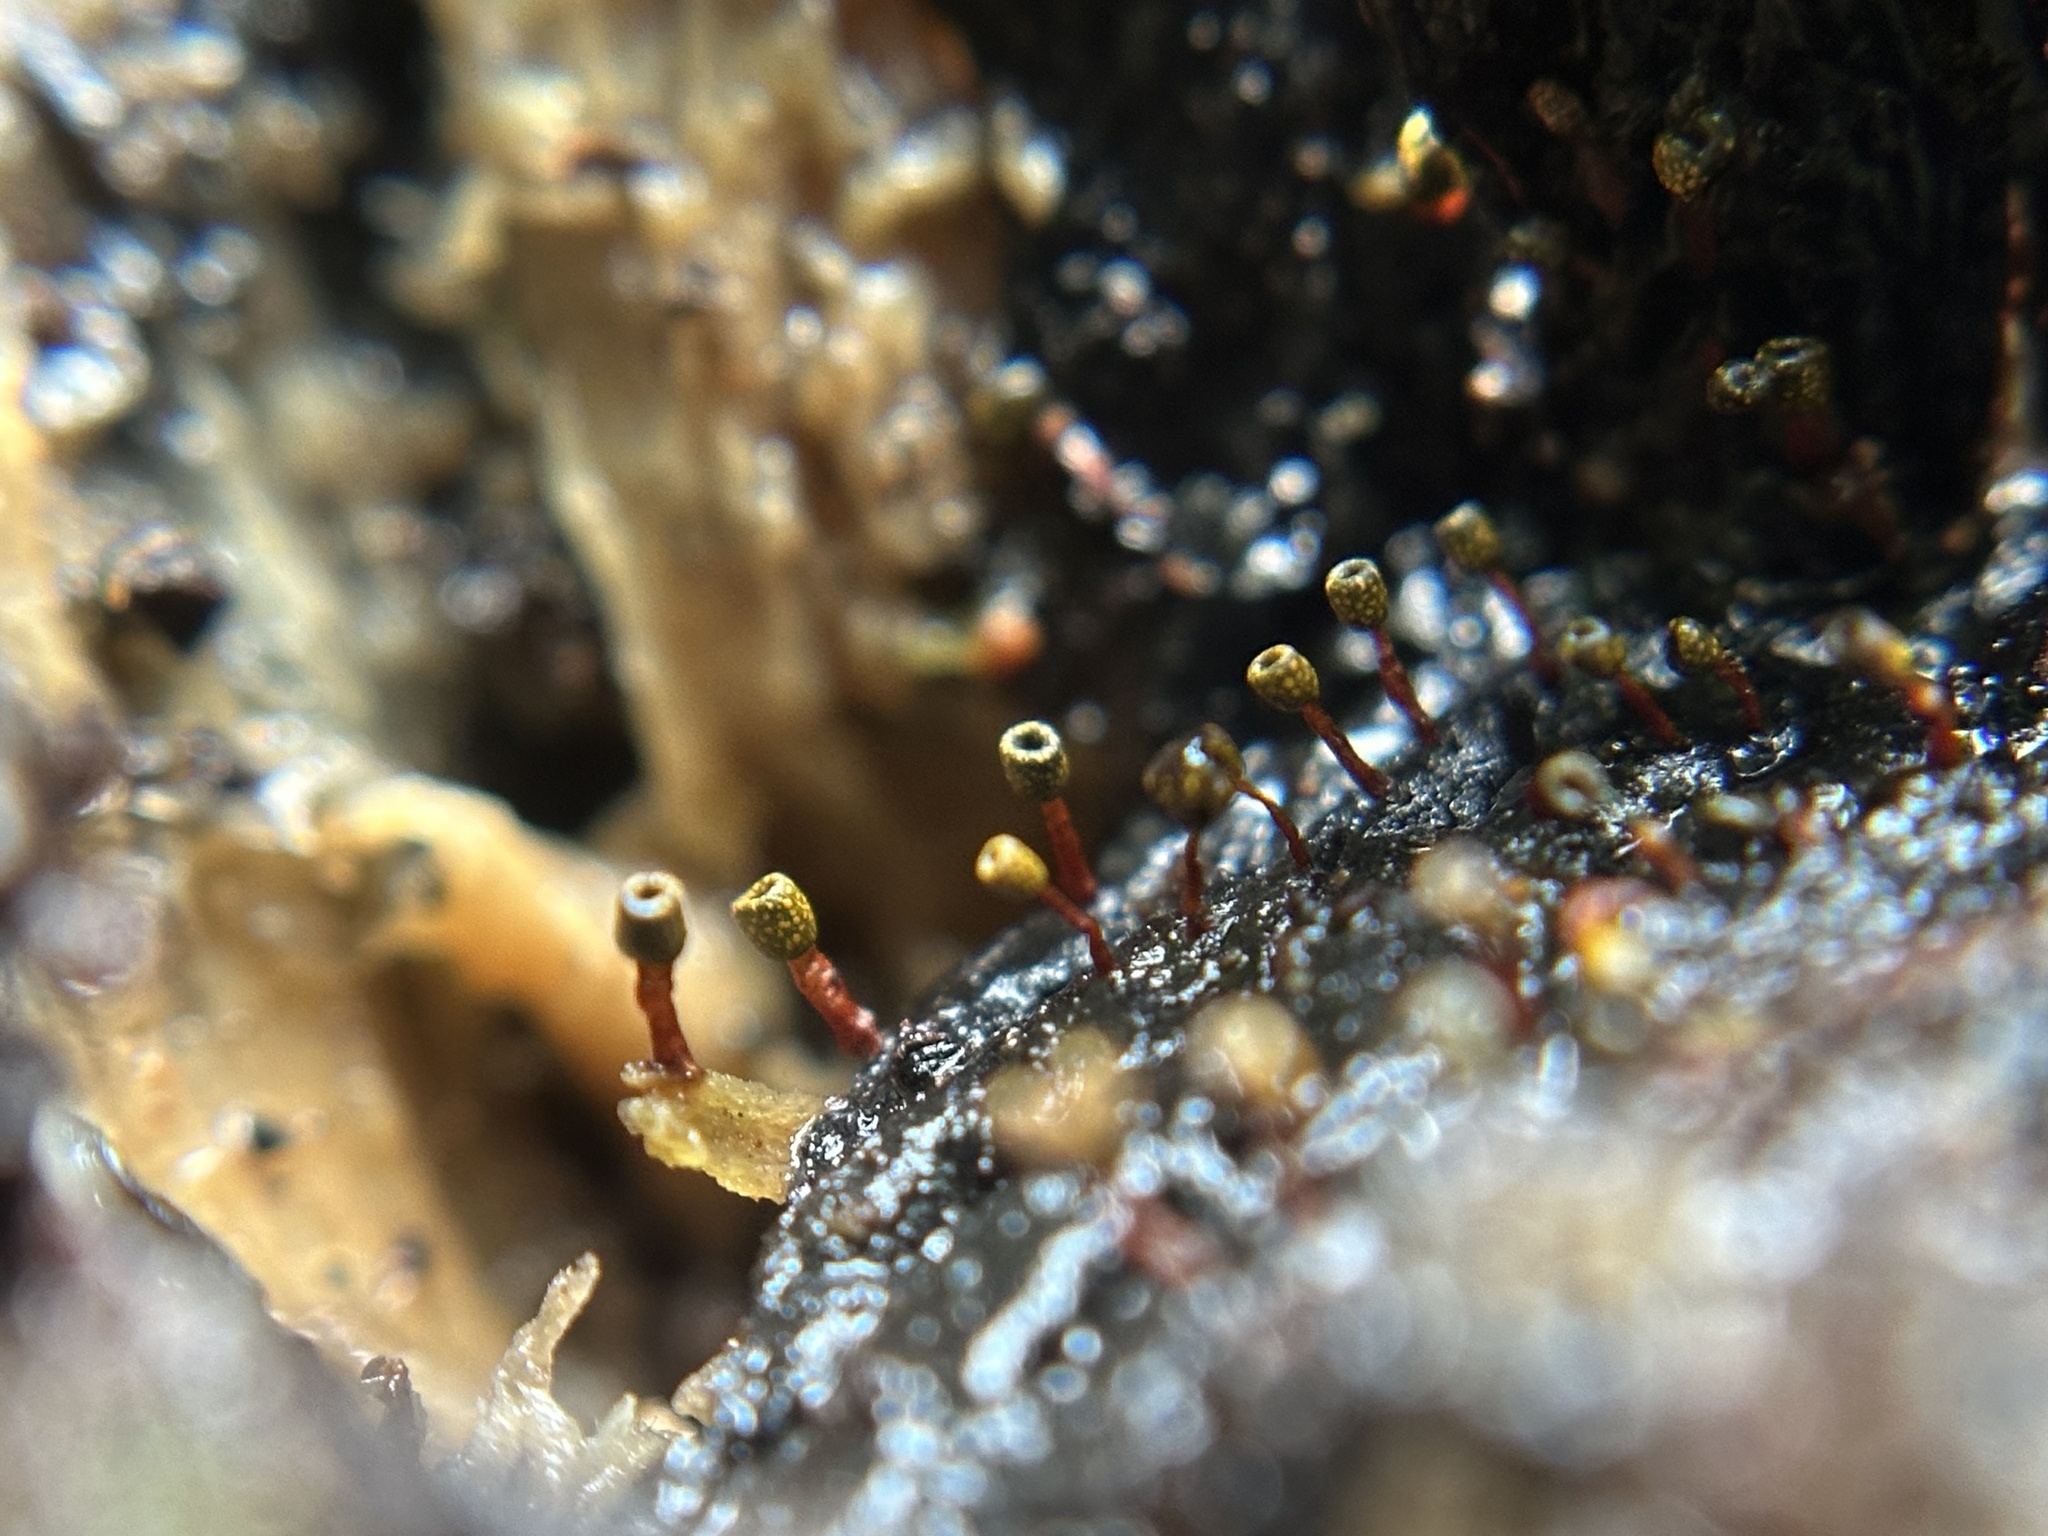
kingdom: Protozoa
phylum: Mycetozoa
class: Myxomycetes
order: Physarales
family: Physaraceae
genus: Physarella
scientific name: Physarella oblonga
